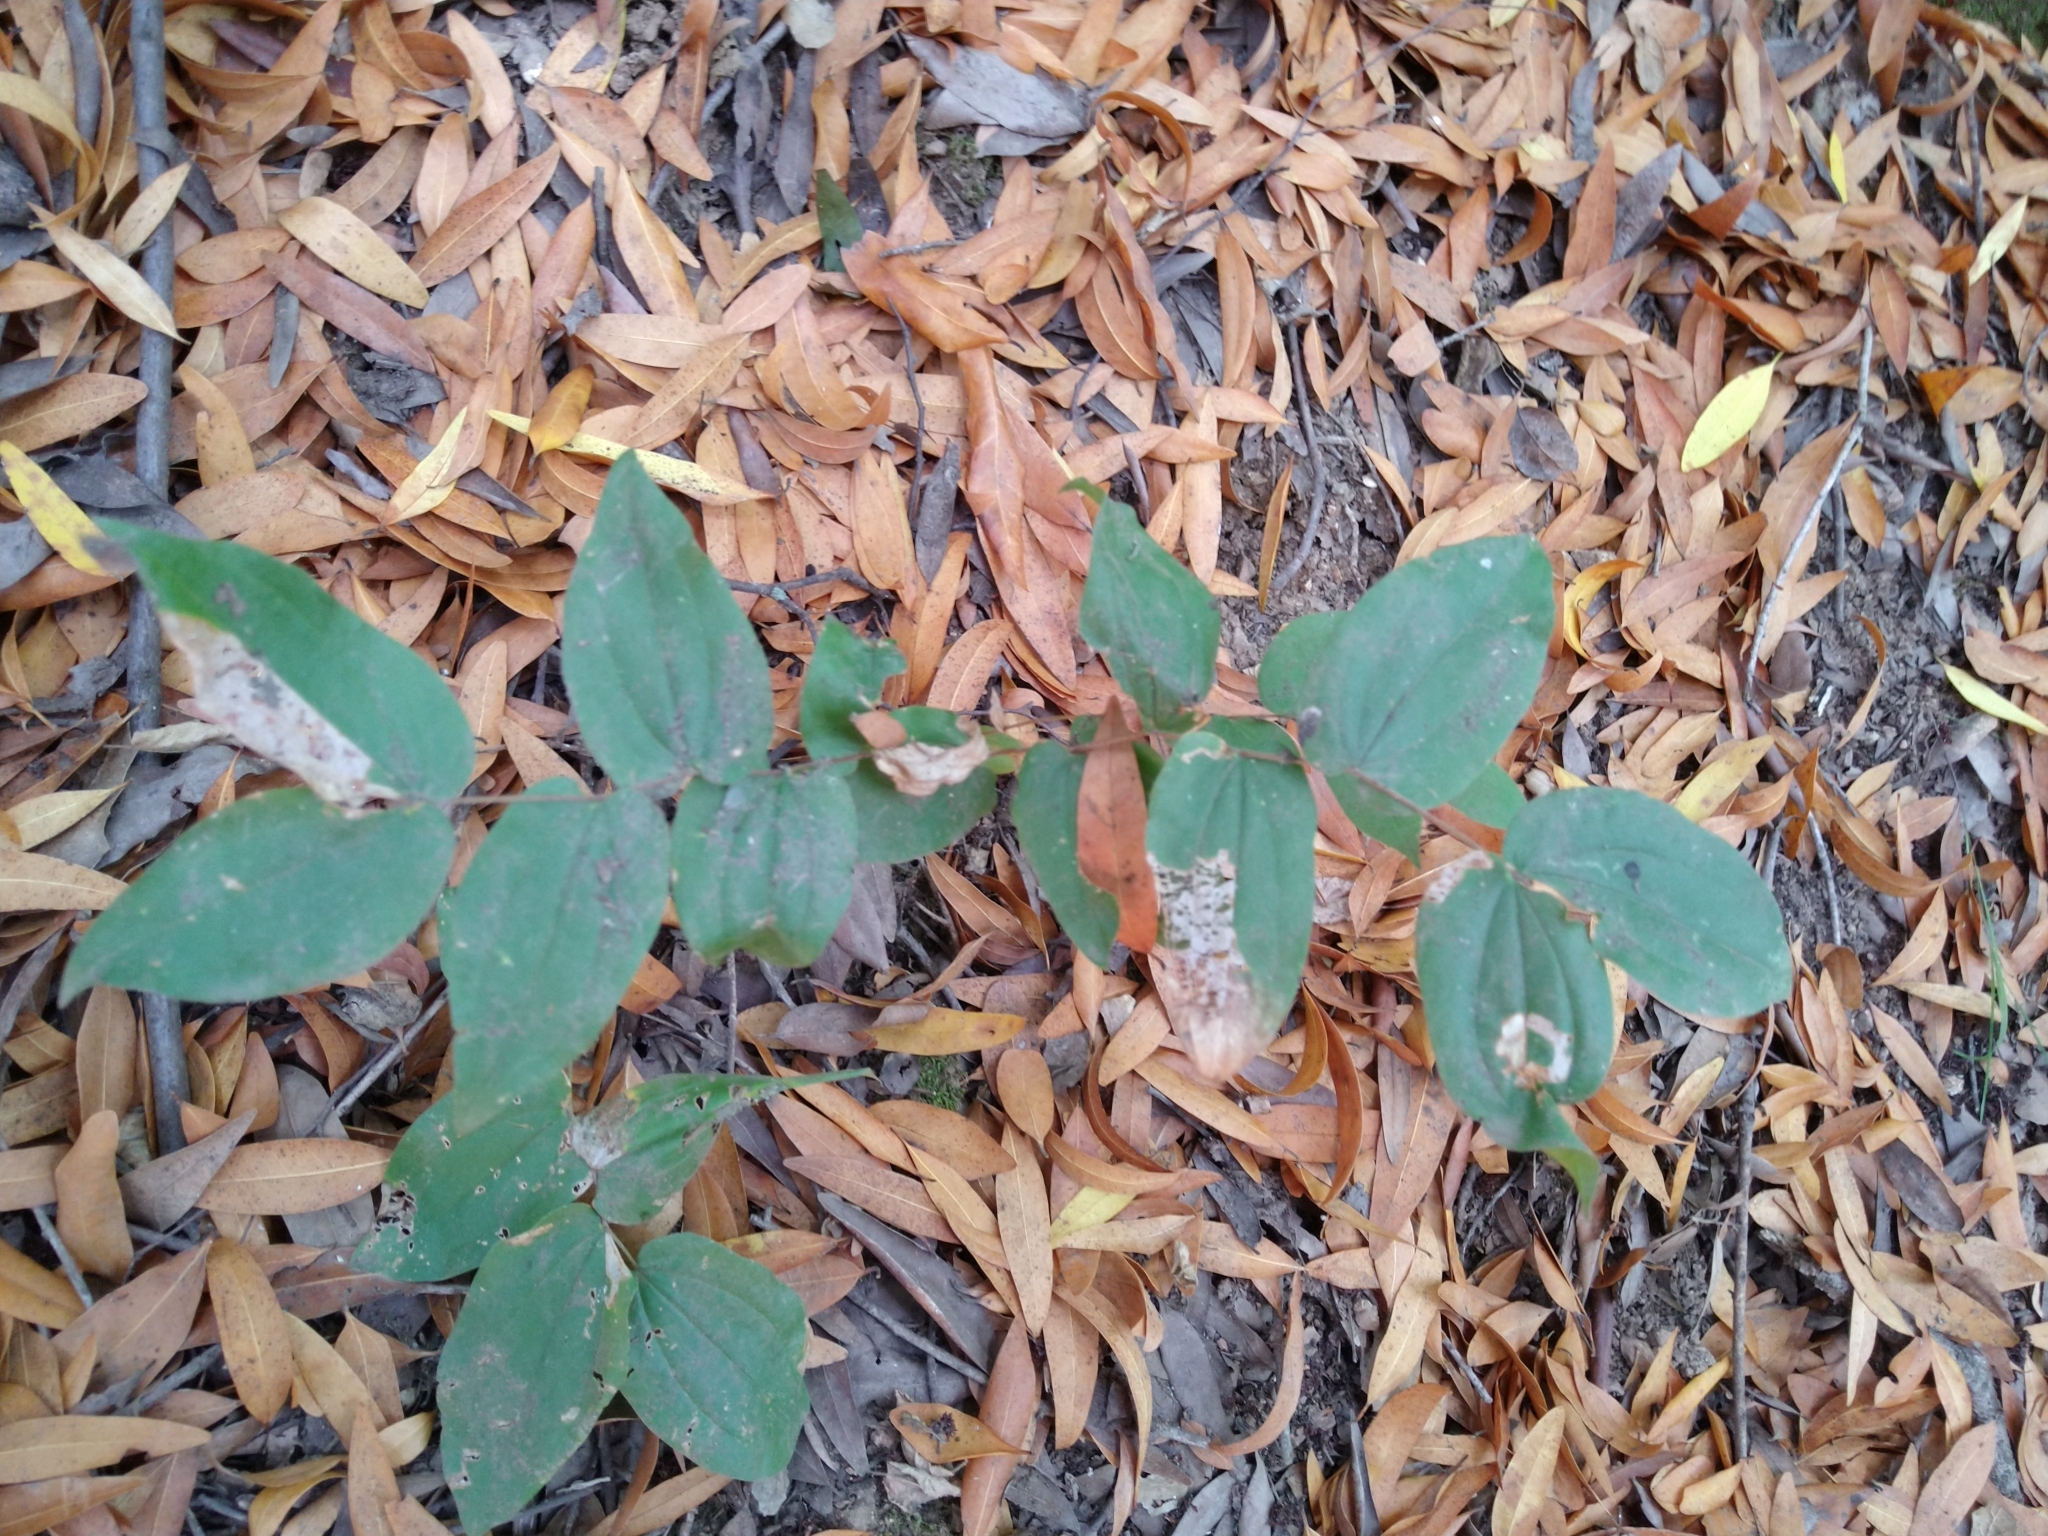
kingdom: Plantae
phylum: Tracheophyta
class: Liliopsida
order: Liliales
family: Liliaceae
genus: Prosartes
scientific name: Prosartes hookeri
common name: Fairy-bells
